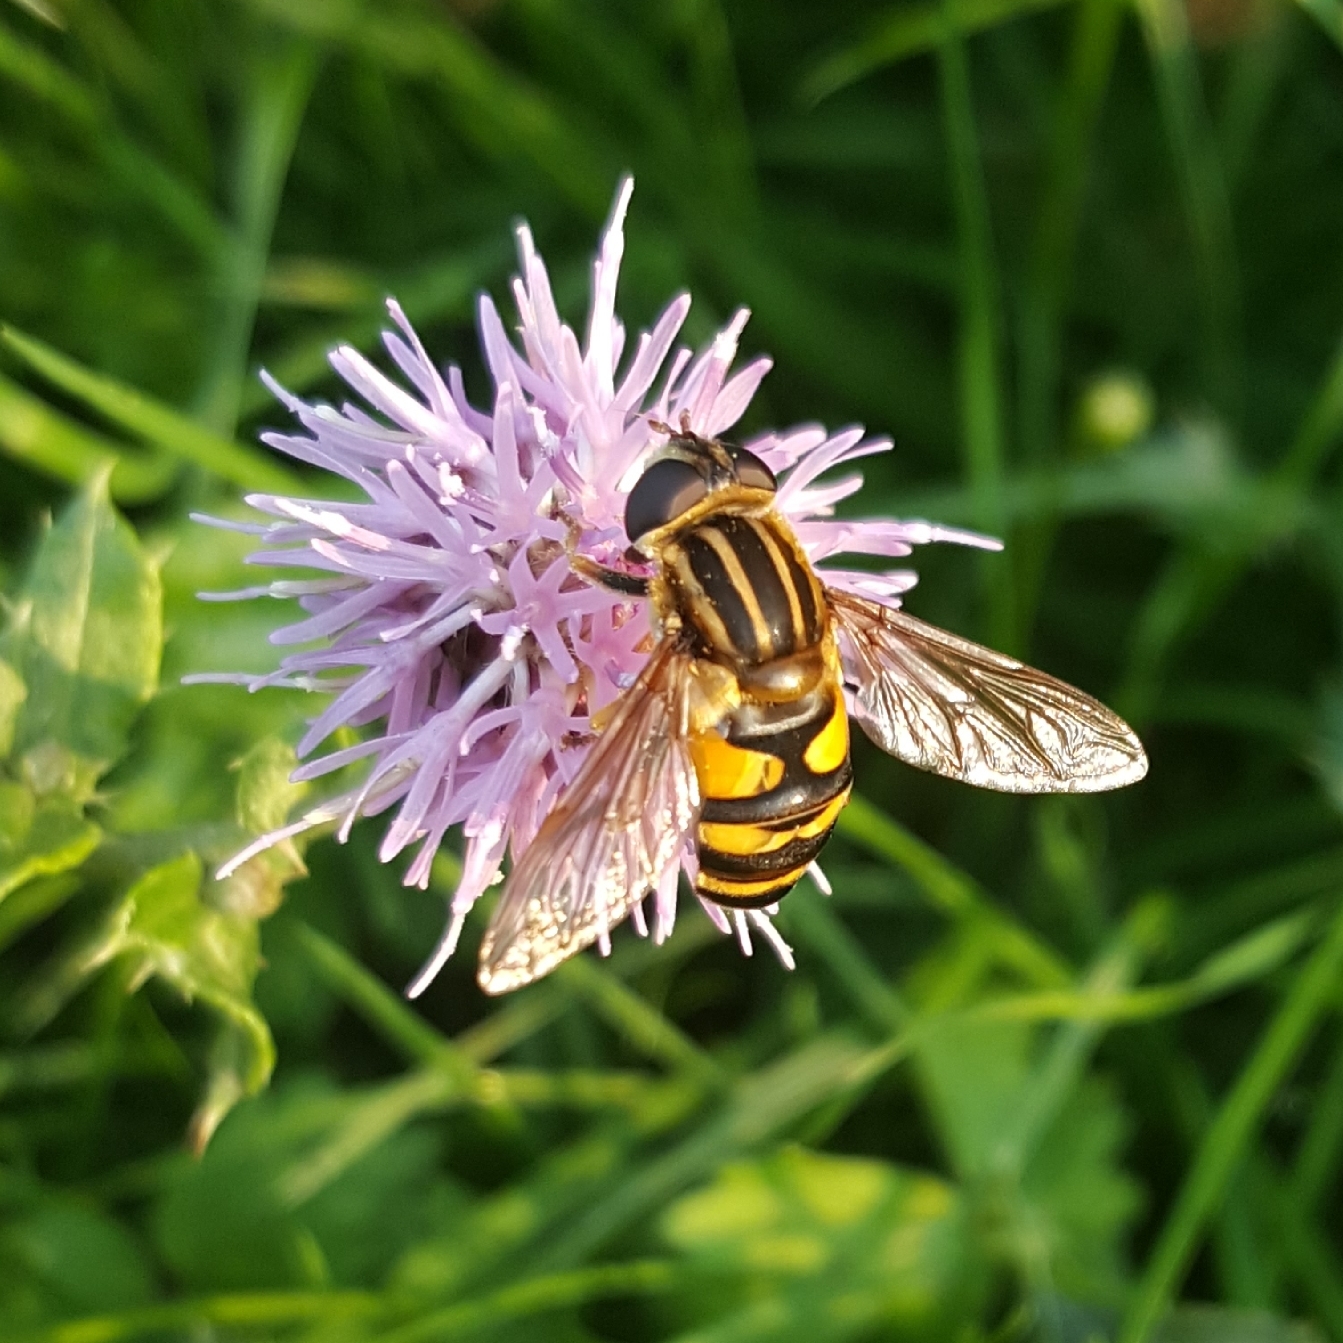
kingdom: Animalia
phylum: Arthropoda
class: Insecta
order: Diptera
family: Syrphidae
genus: Helophilus
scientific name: Helophilus fasciatus
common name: Narrow-headed marsh fly
